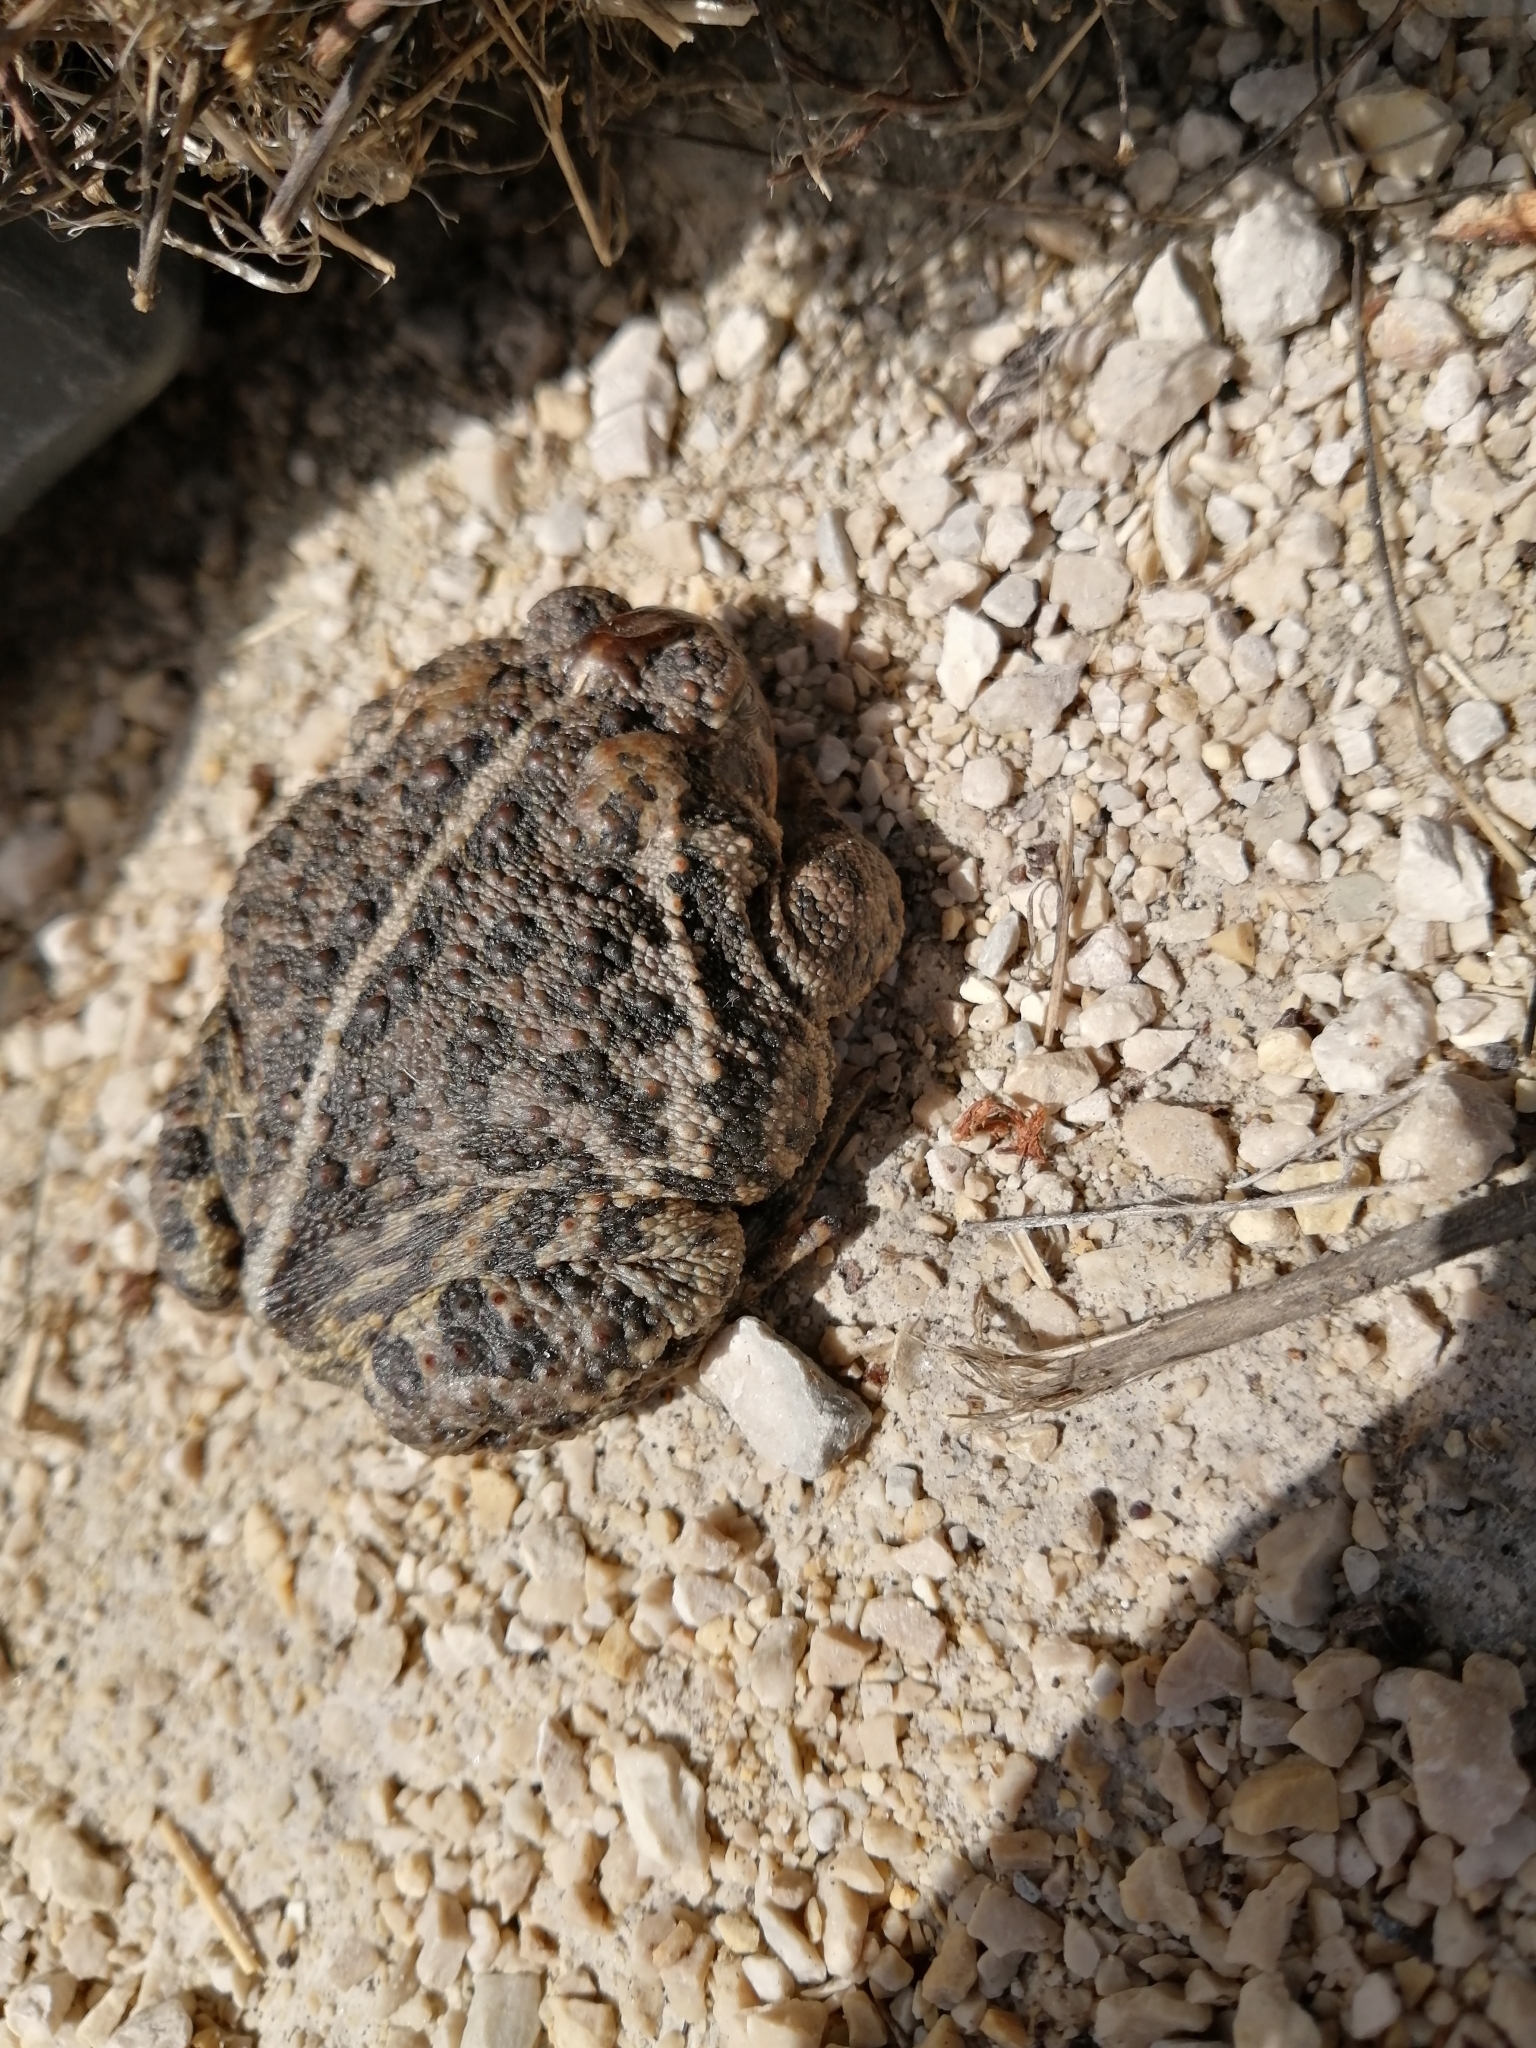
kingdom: Animalia
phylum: Chordata
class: Amphibia
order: Anura
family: Bufonidae
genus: Anaxyrus
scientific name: Anaxyrus hemiophrys
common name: Canadian toad
